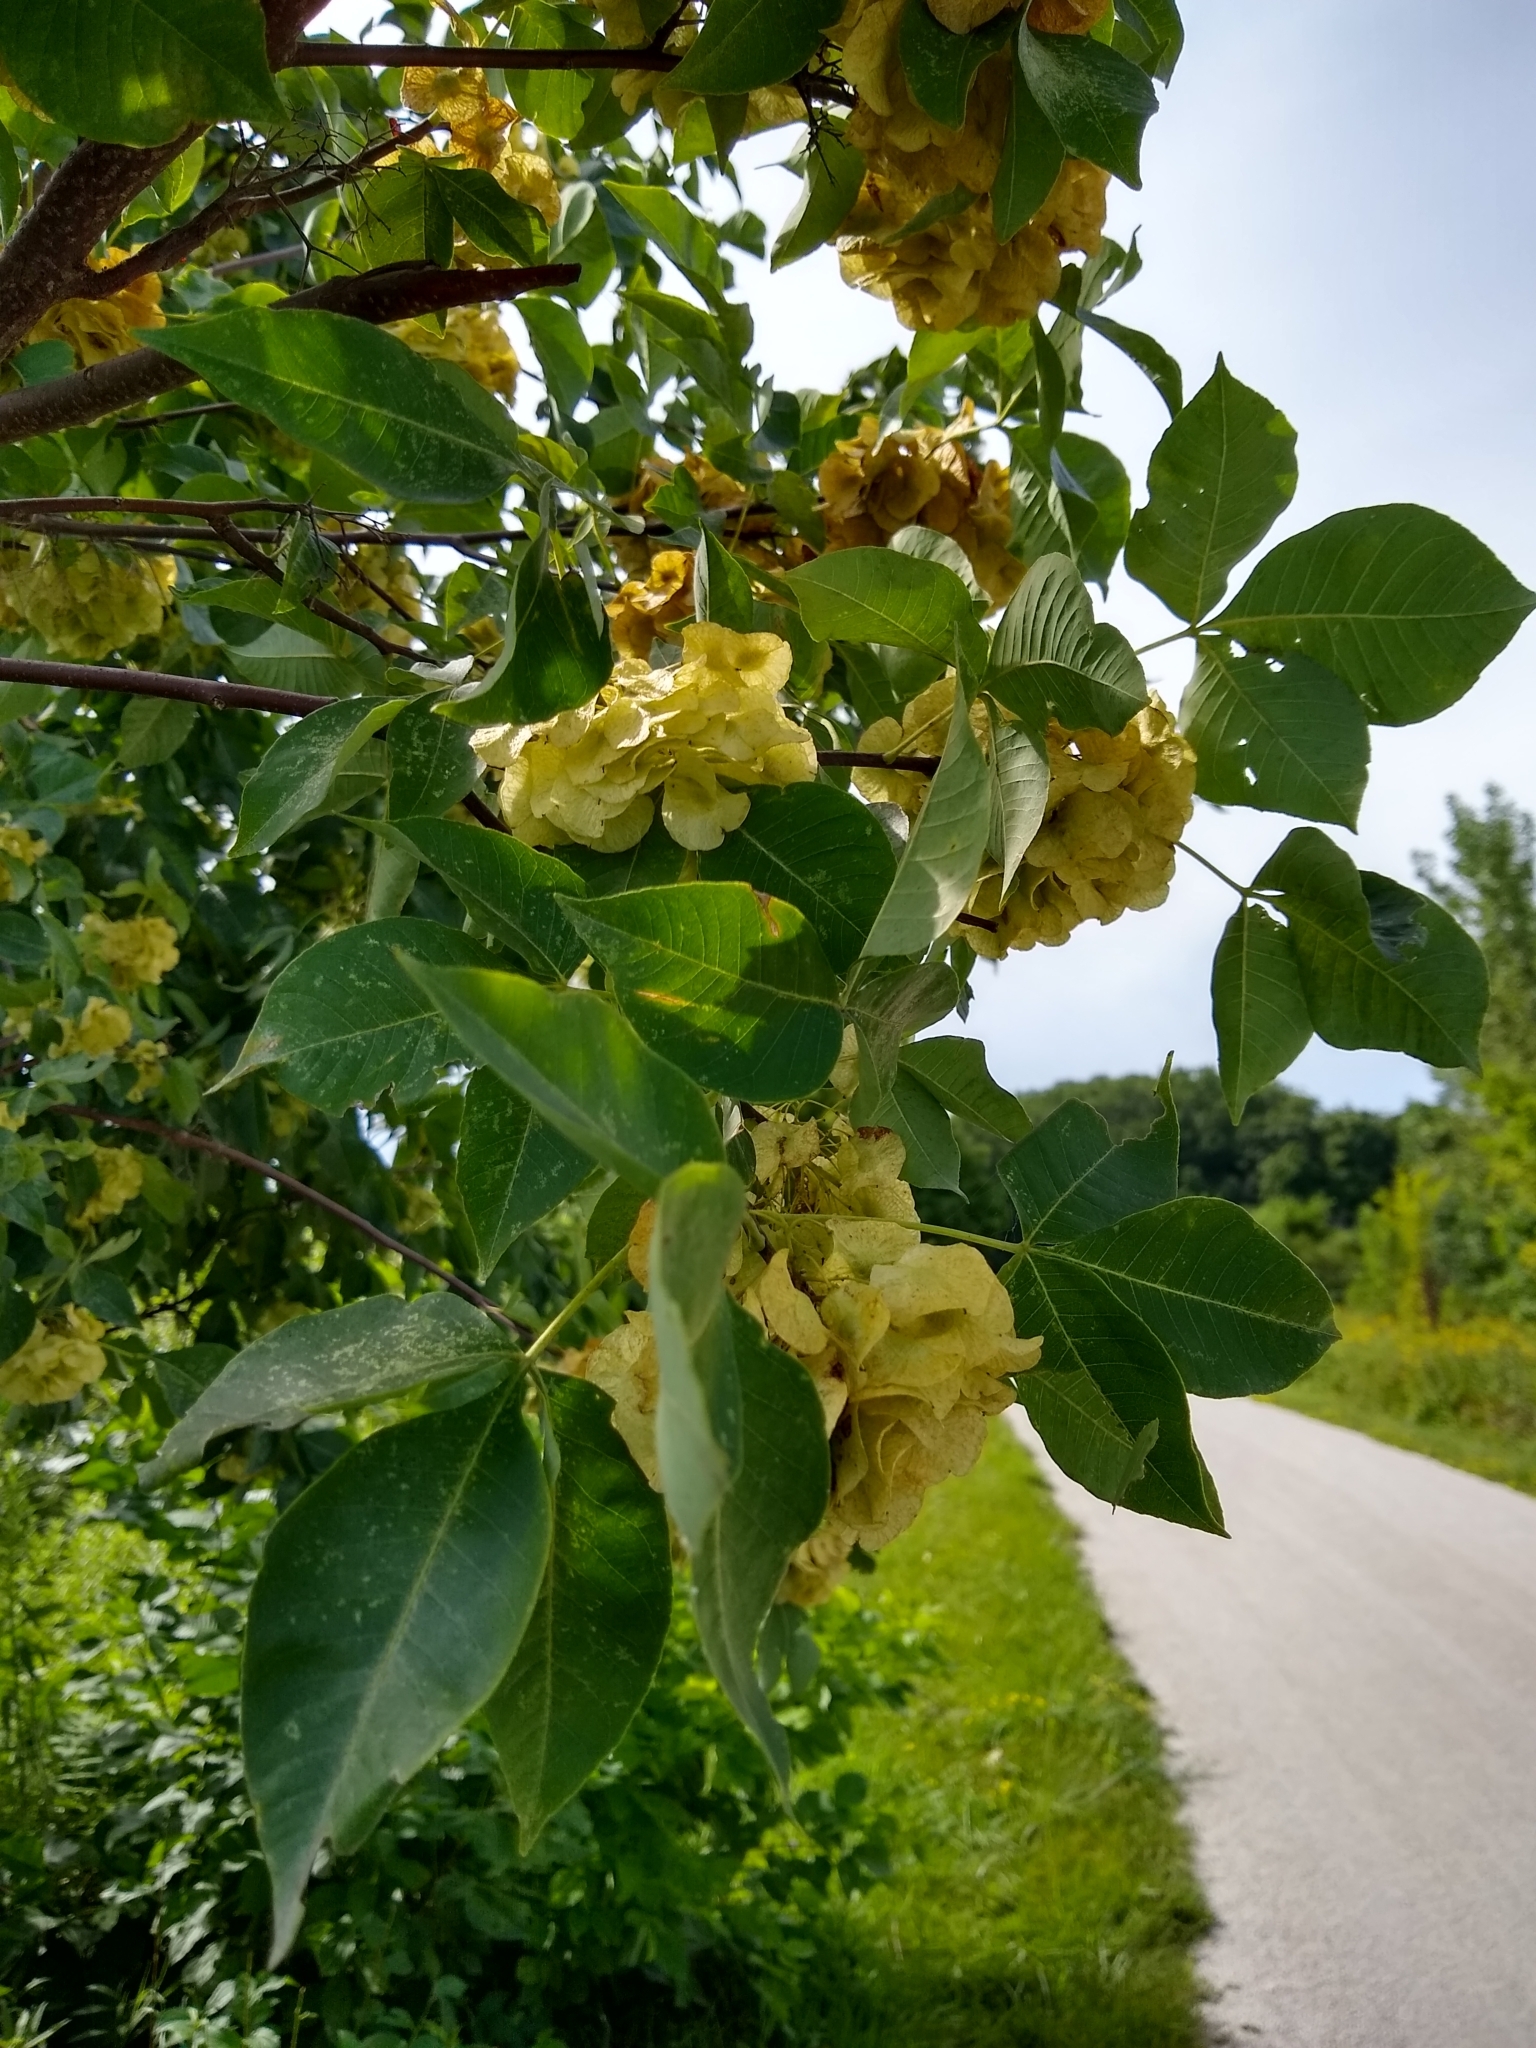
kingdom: Plantae
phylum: Tracheophyta
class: Magnoliopsida
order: Sapindales
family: Rutaceae
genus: Ptelea
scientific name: Ptelea trifoliata
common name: Common hop-tree
